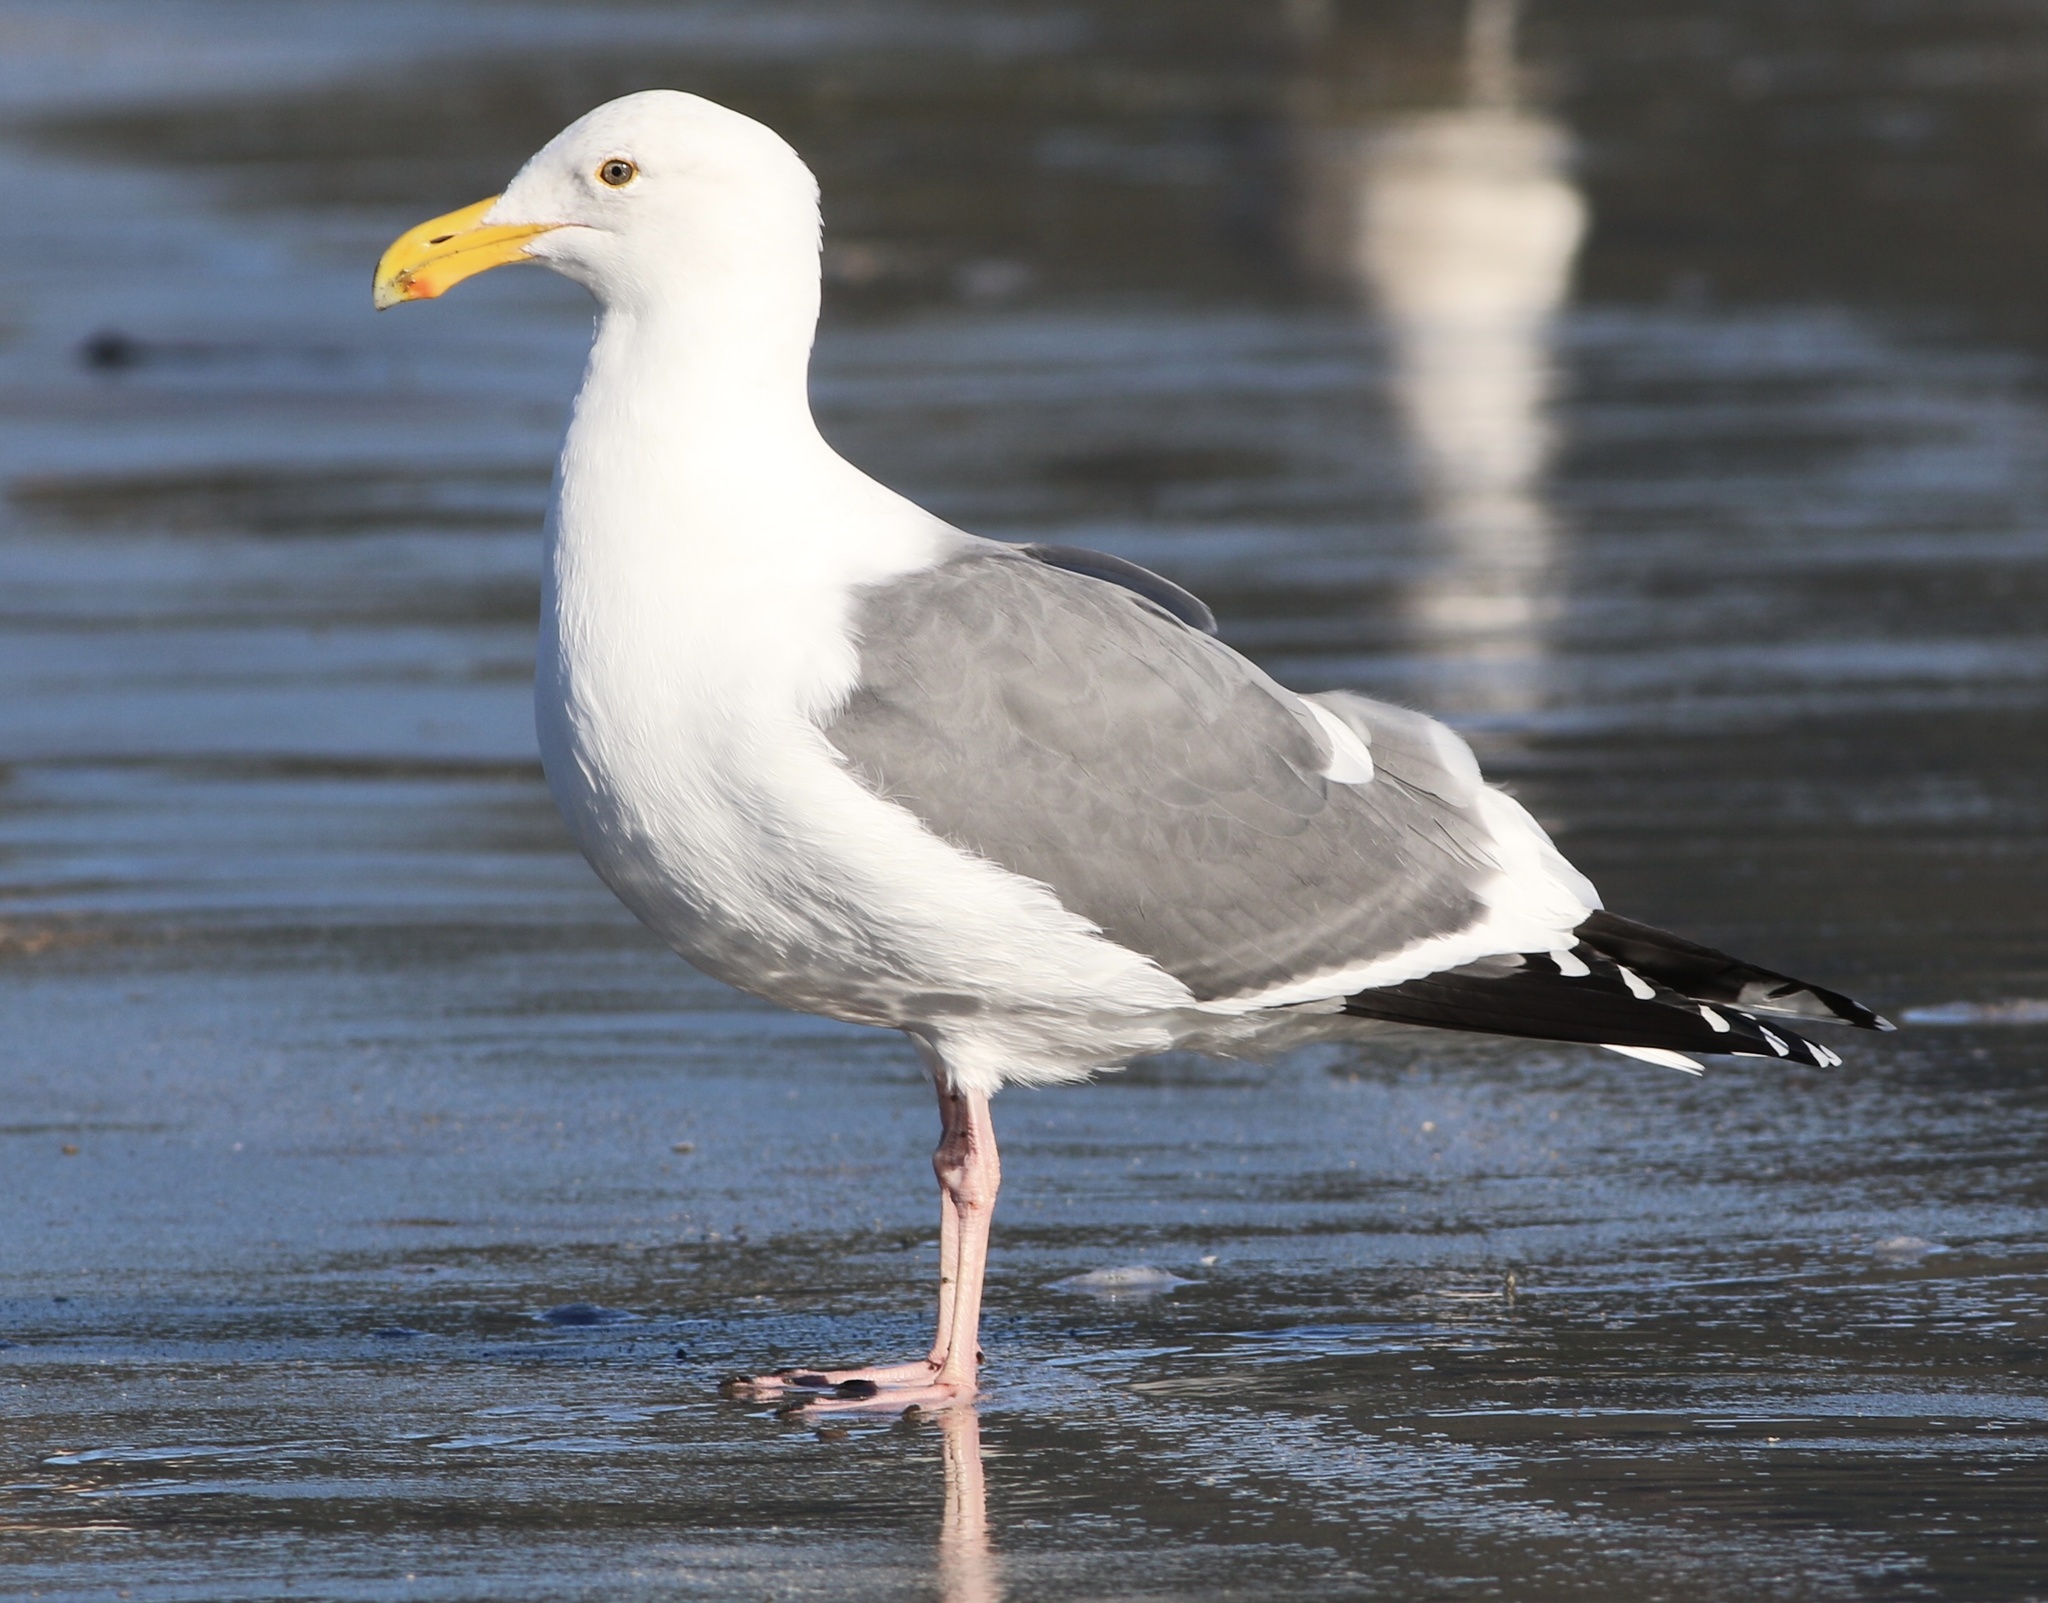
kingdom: Animalia
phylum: Chordata
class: Aves
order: Charadriiformes
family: Laridae
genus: Larus
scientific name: Larus occidentalis
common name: Western gull
